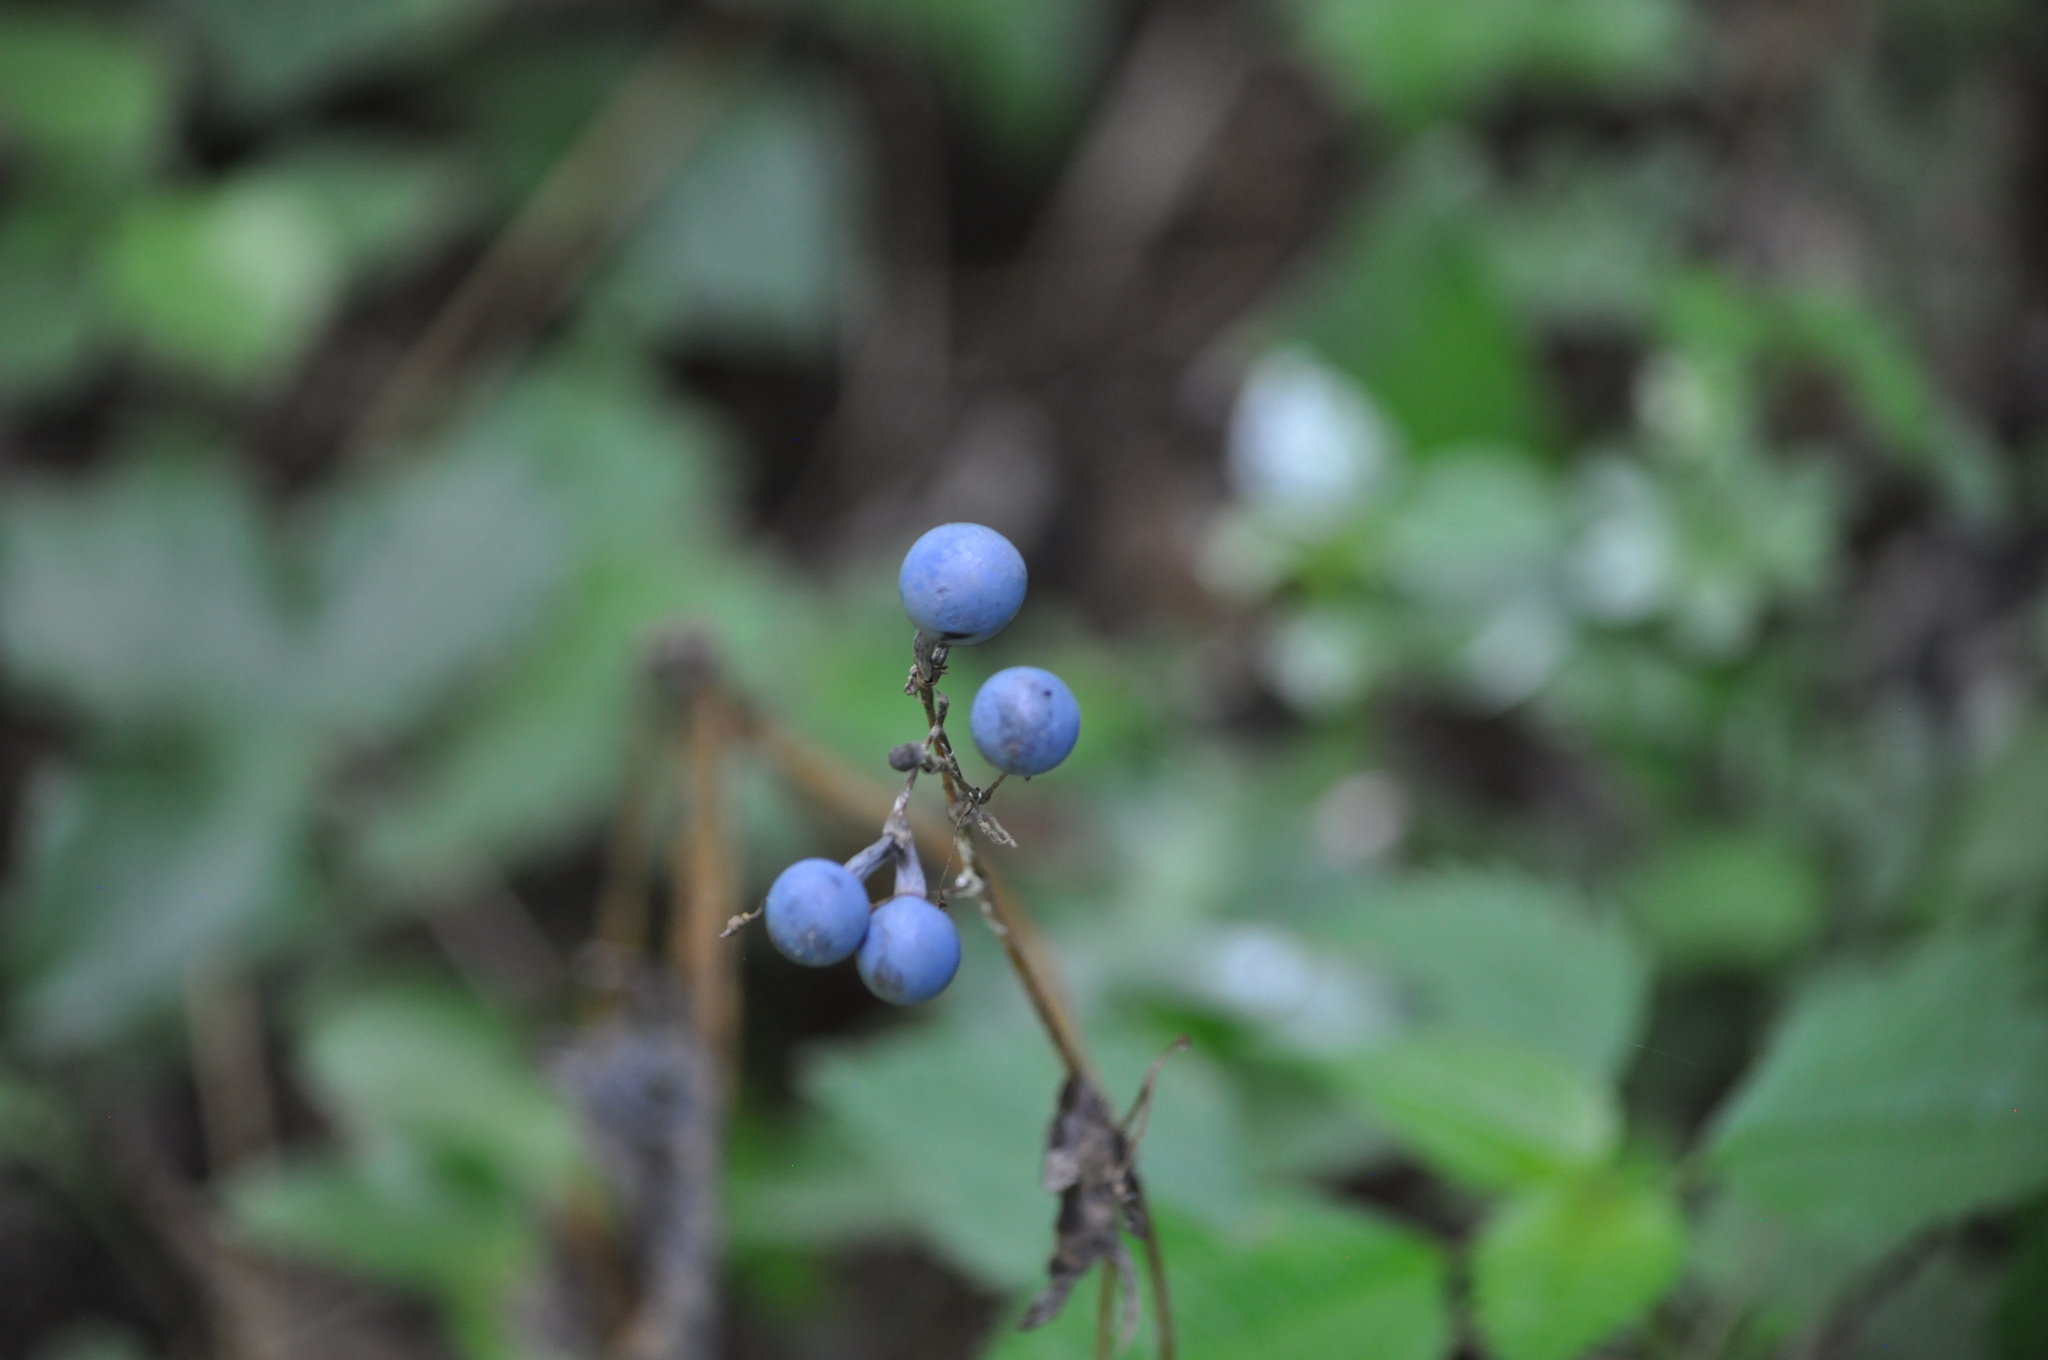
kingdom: Plantae
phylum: Tracheophyta
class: Magnoliopsida
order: Ranunculales
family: Berberidaceae
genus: Caulophyllum
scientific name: Caulophyllum thalictroides
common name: Blue cohosh
